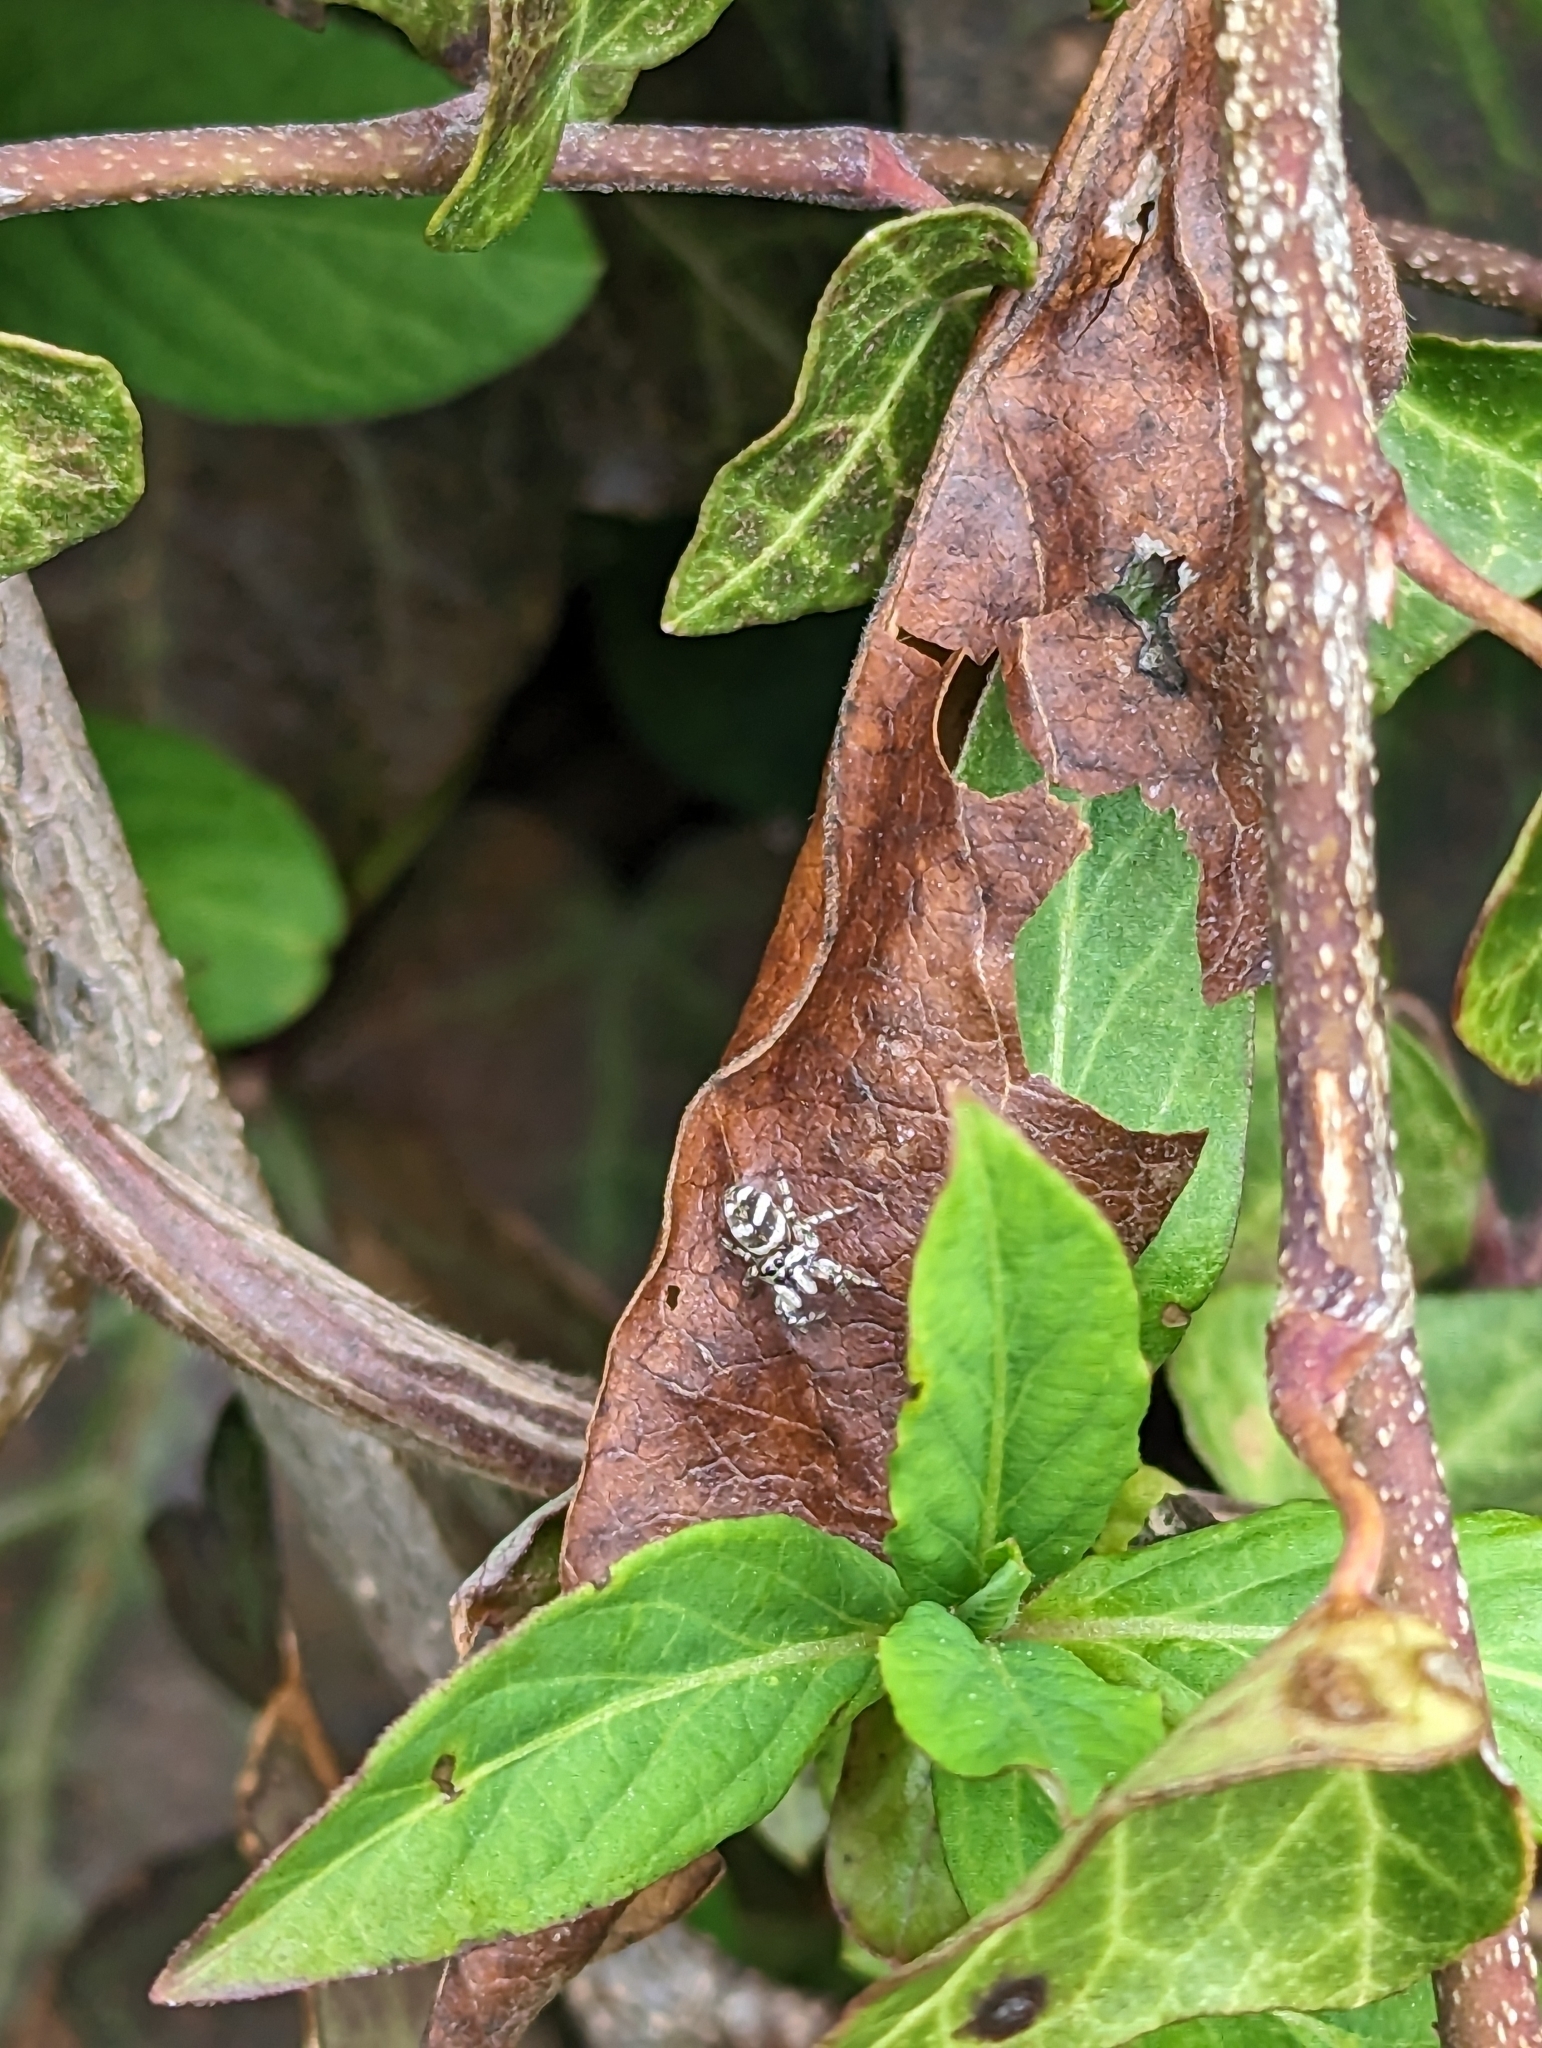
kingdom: Animalia
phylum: Arthropoda
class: Arachnida
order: Araneae
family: Salticidae
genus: Salticus
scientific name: Salticus scenicus
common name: Zebra jumper
